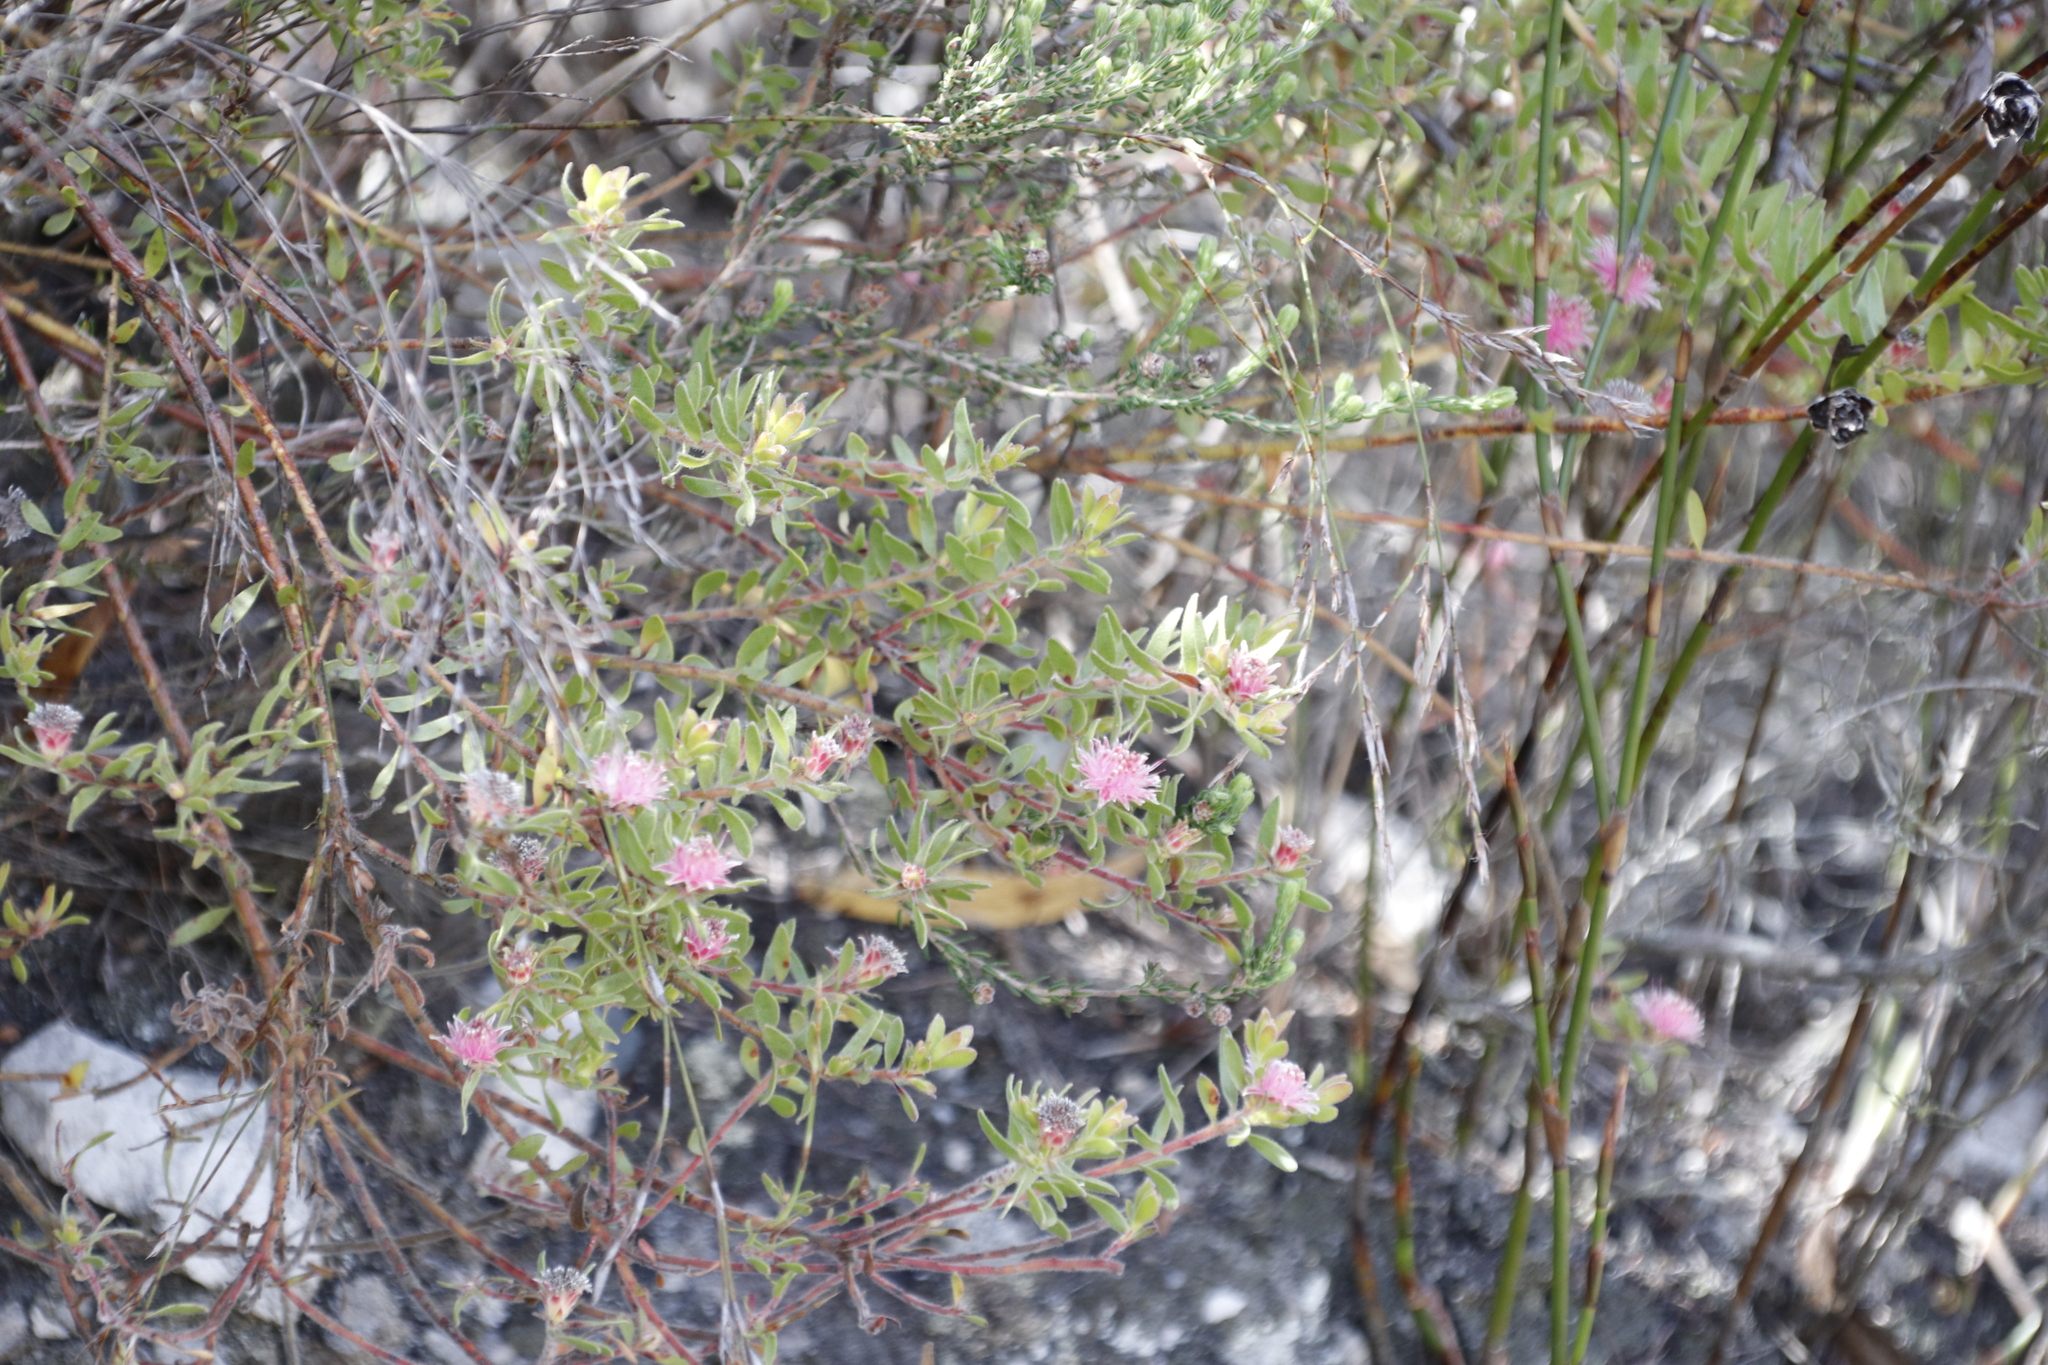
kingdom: Plantae
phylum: Tracheophyta
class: Magnoliopsida
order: Proteales
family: Proteaceae
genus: Diastella
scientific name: Diastella divaricata
